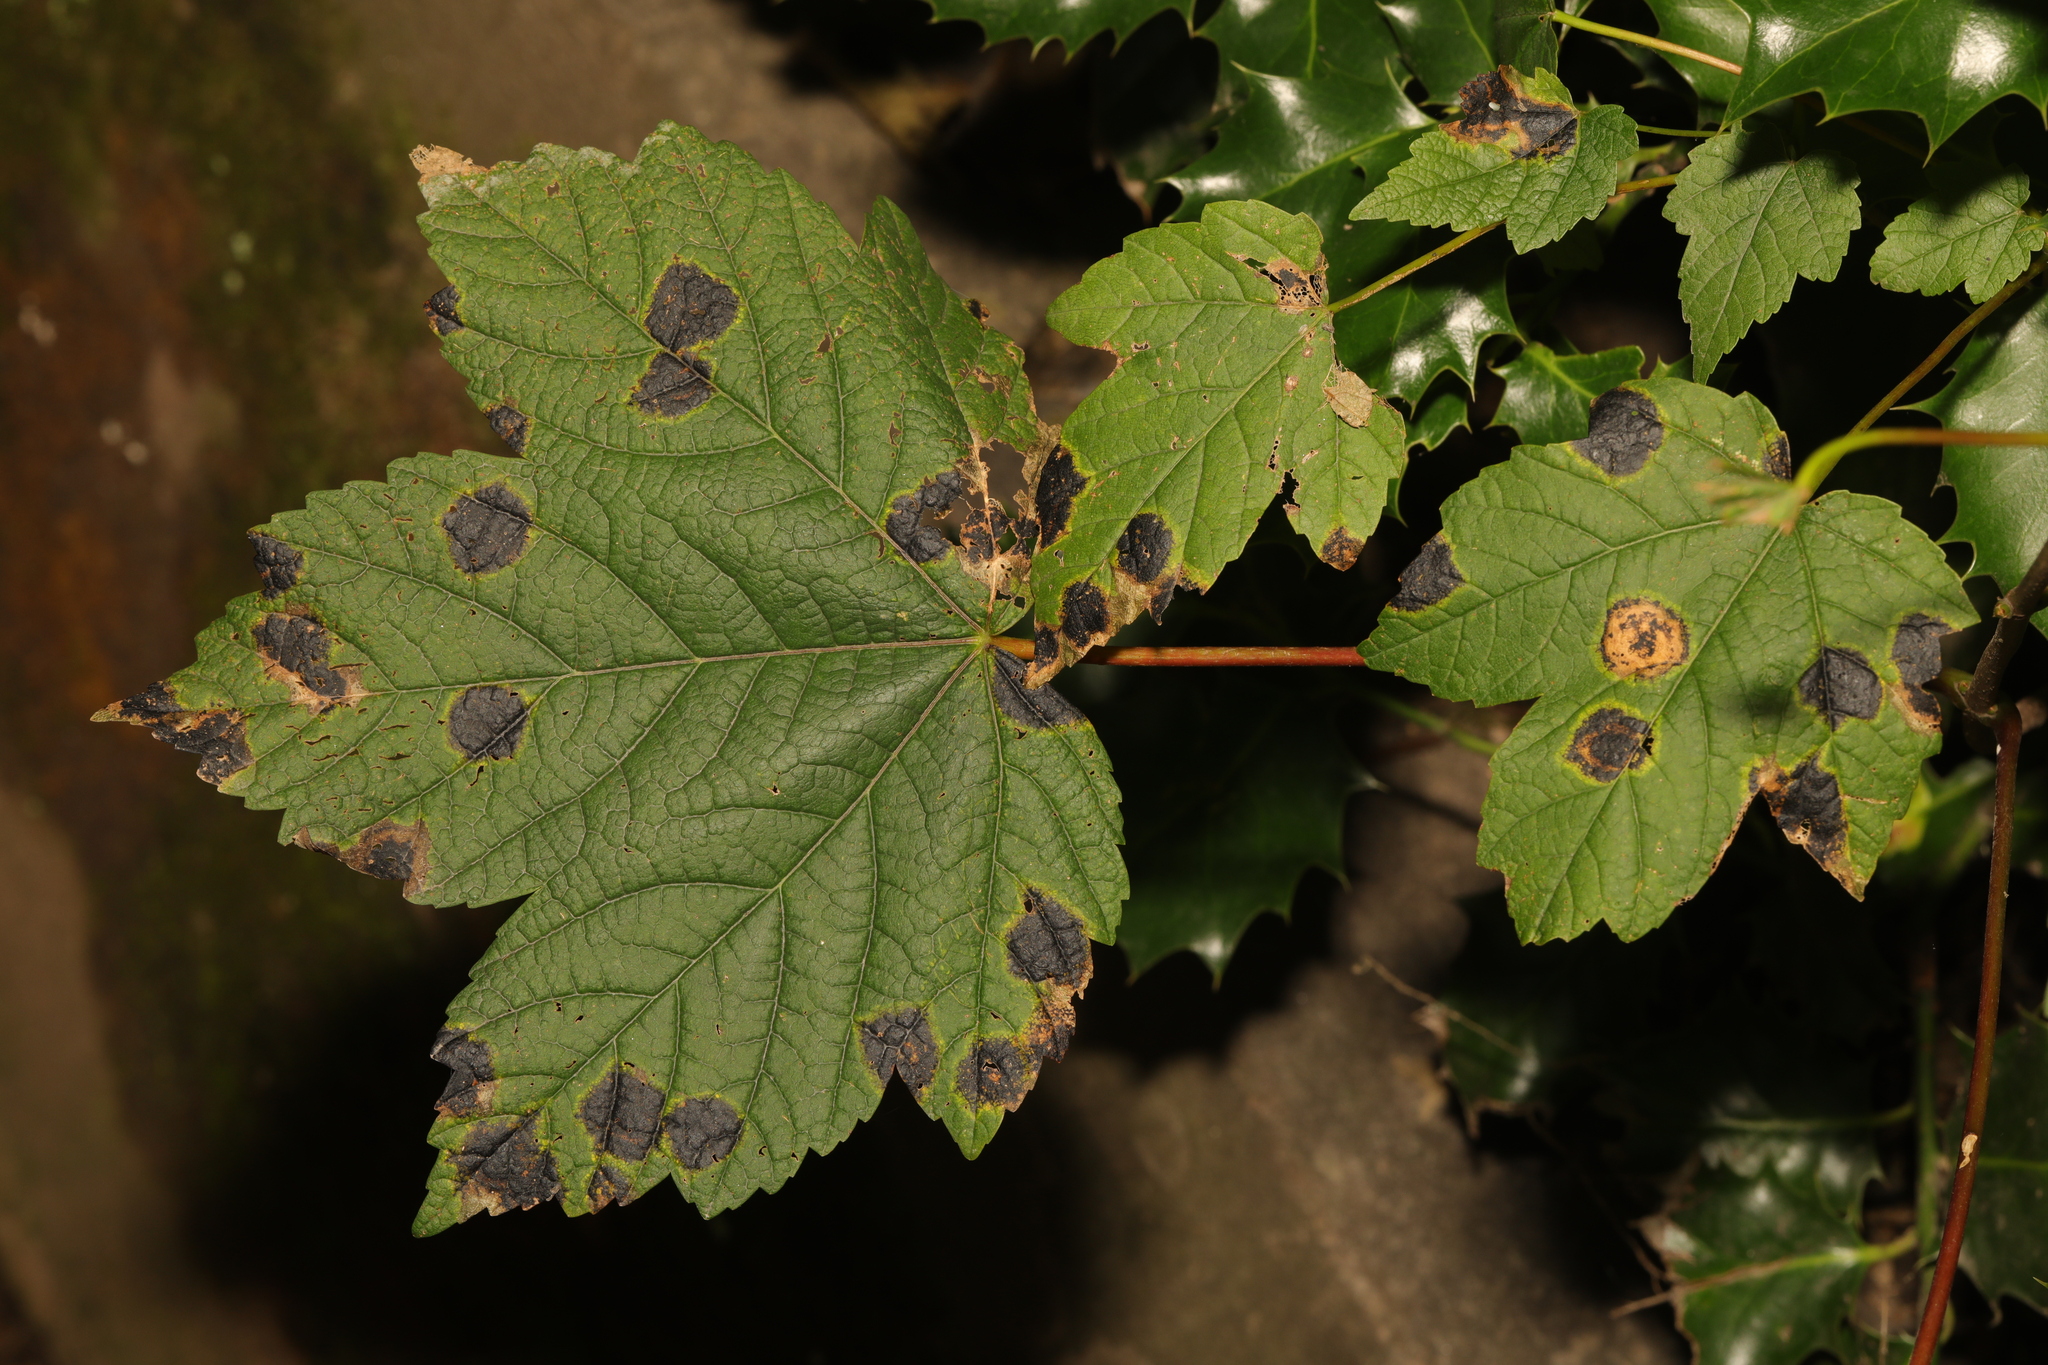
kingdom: Plantae
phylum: Tracheophyta
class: Magnoliopsida
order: Sapindales
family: Sapindaceae
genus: Acer
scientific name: Acer pseudoplatanus
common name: Sycamore
